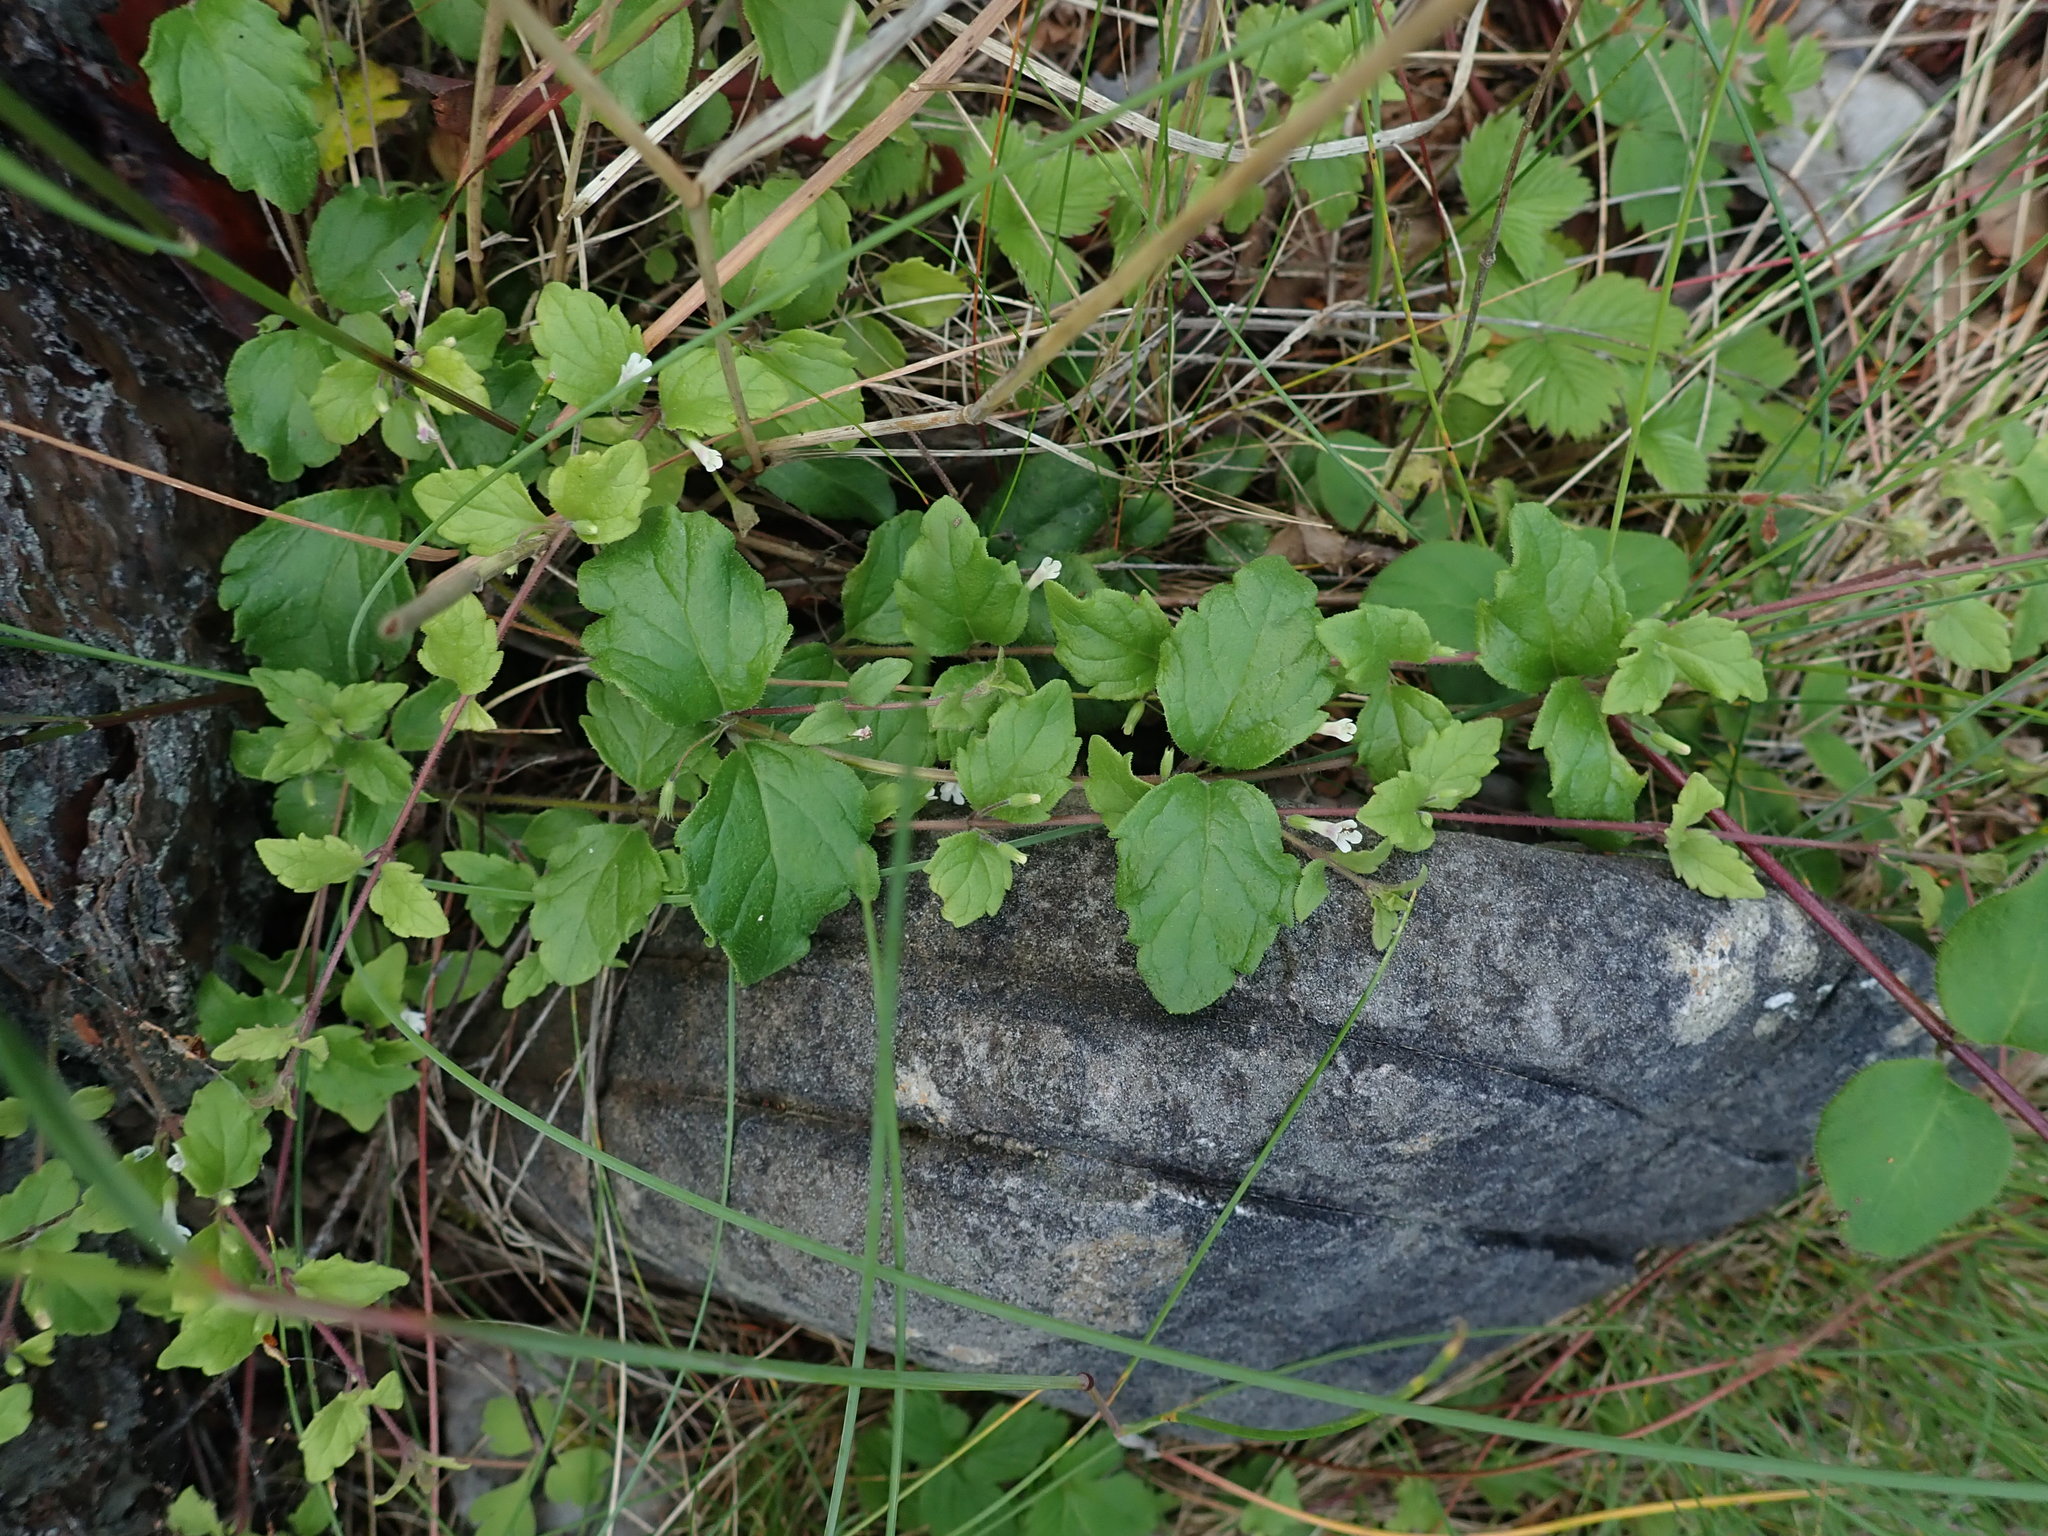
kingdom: Plantae
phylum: Tracheophyta
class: Magnoliopsida
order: Lamiales
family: Lamiaceae
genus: Micromeria
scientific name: Micromeria douglasii
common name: Yerba buena
